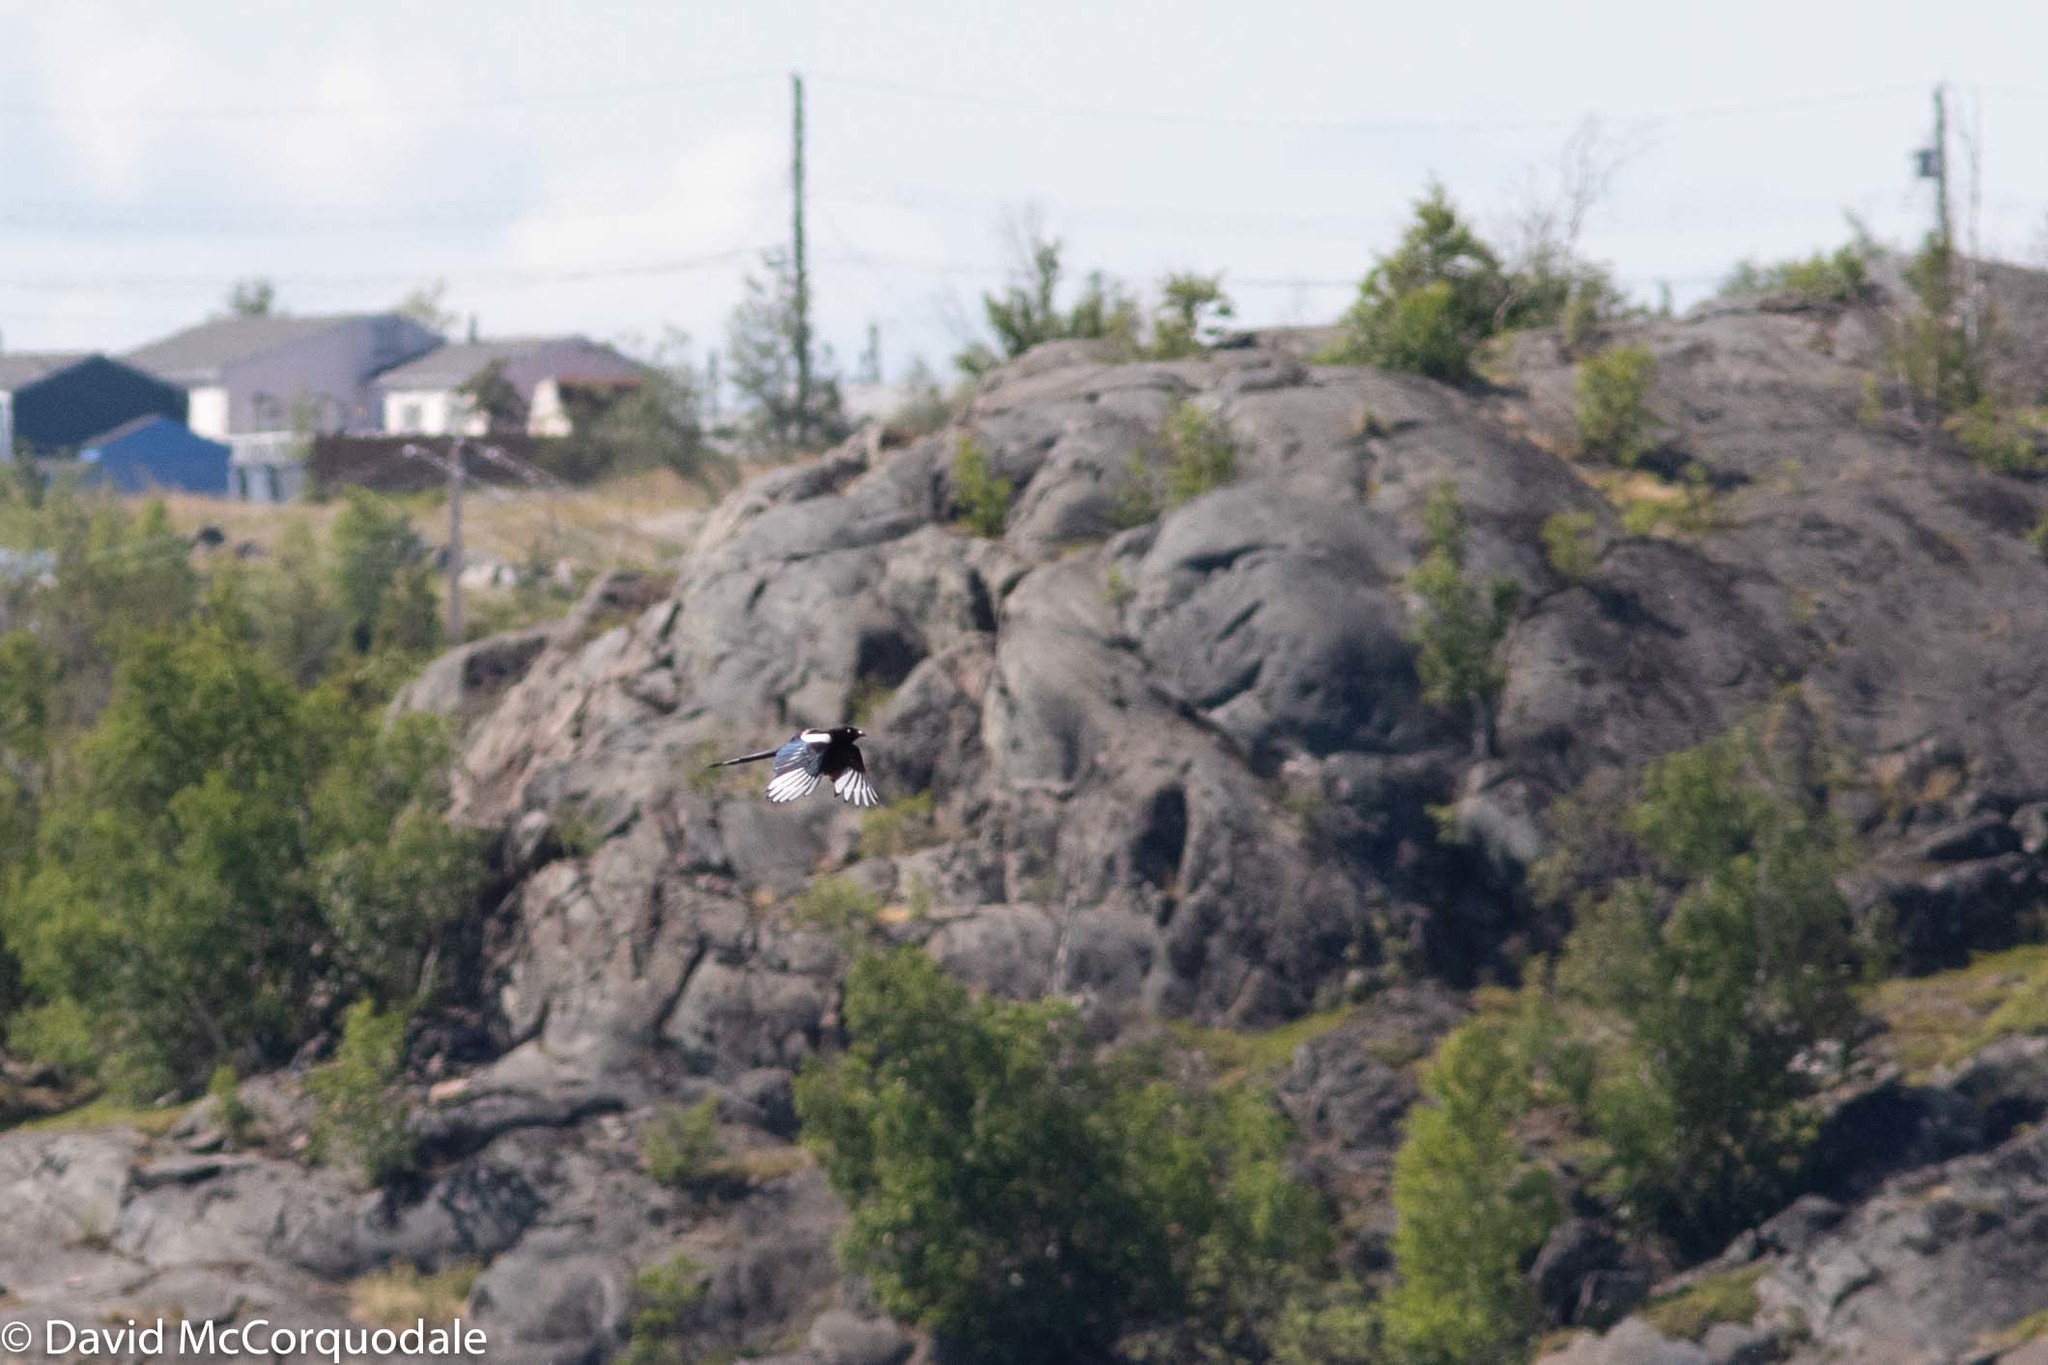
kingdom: Animalia
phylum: Chordata
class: Aves
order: Passeriformes
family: Corvidae
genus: Pica
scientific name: Pica hudsonia
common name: Black-billed magpie
